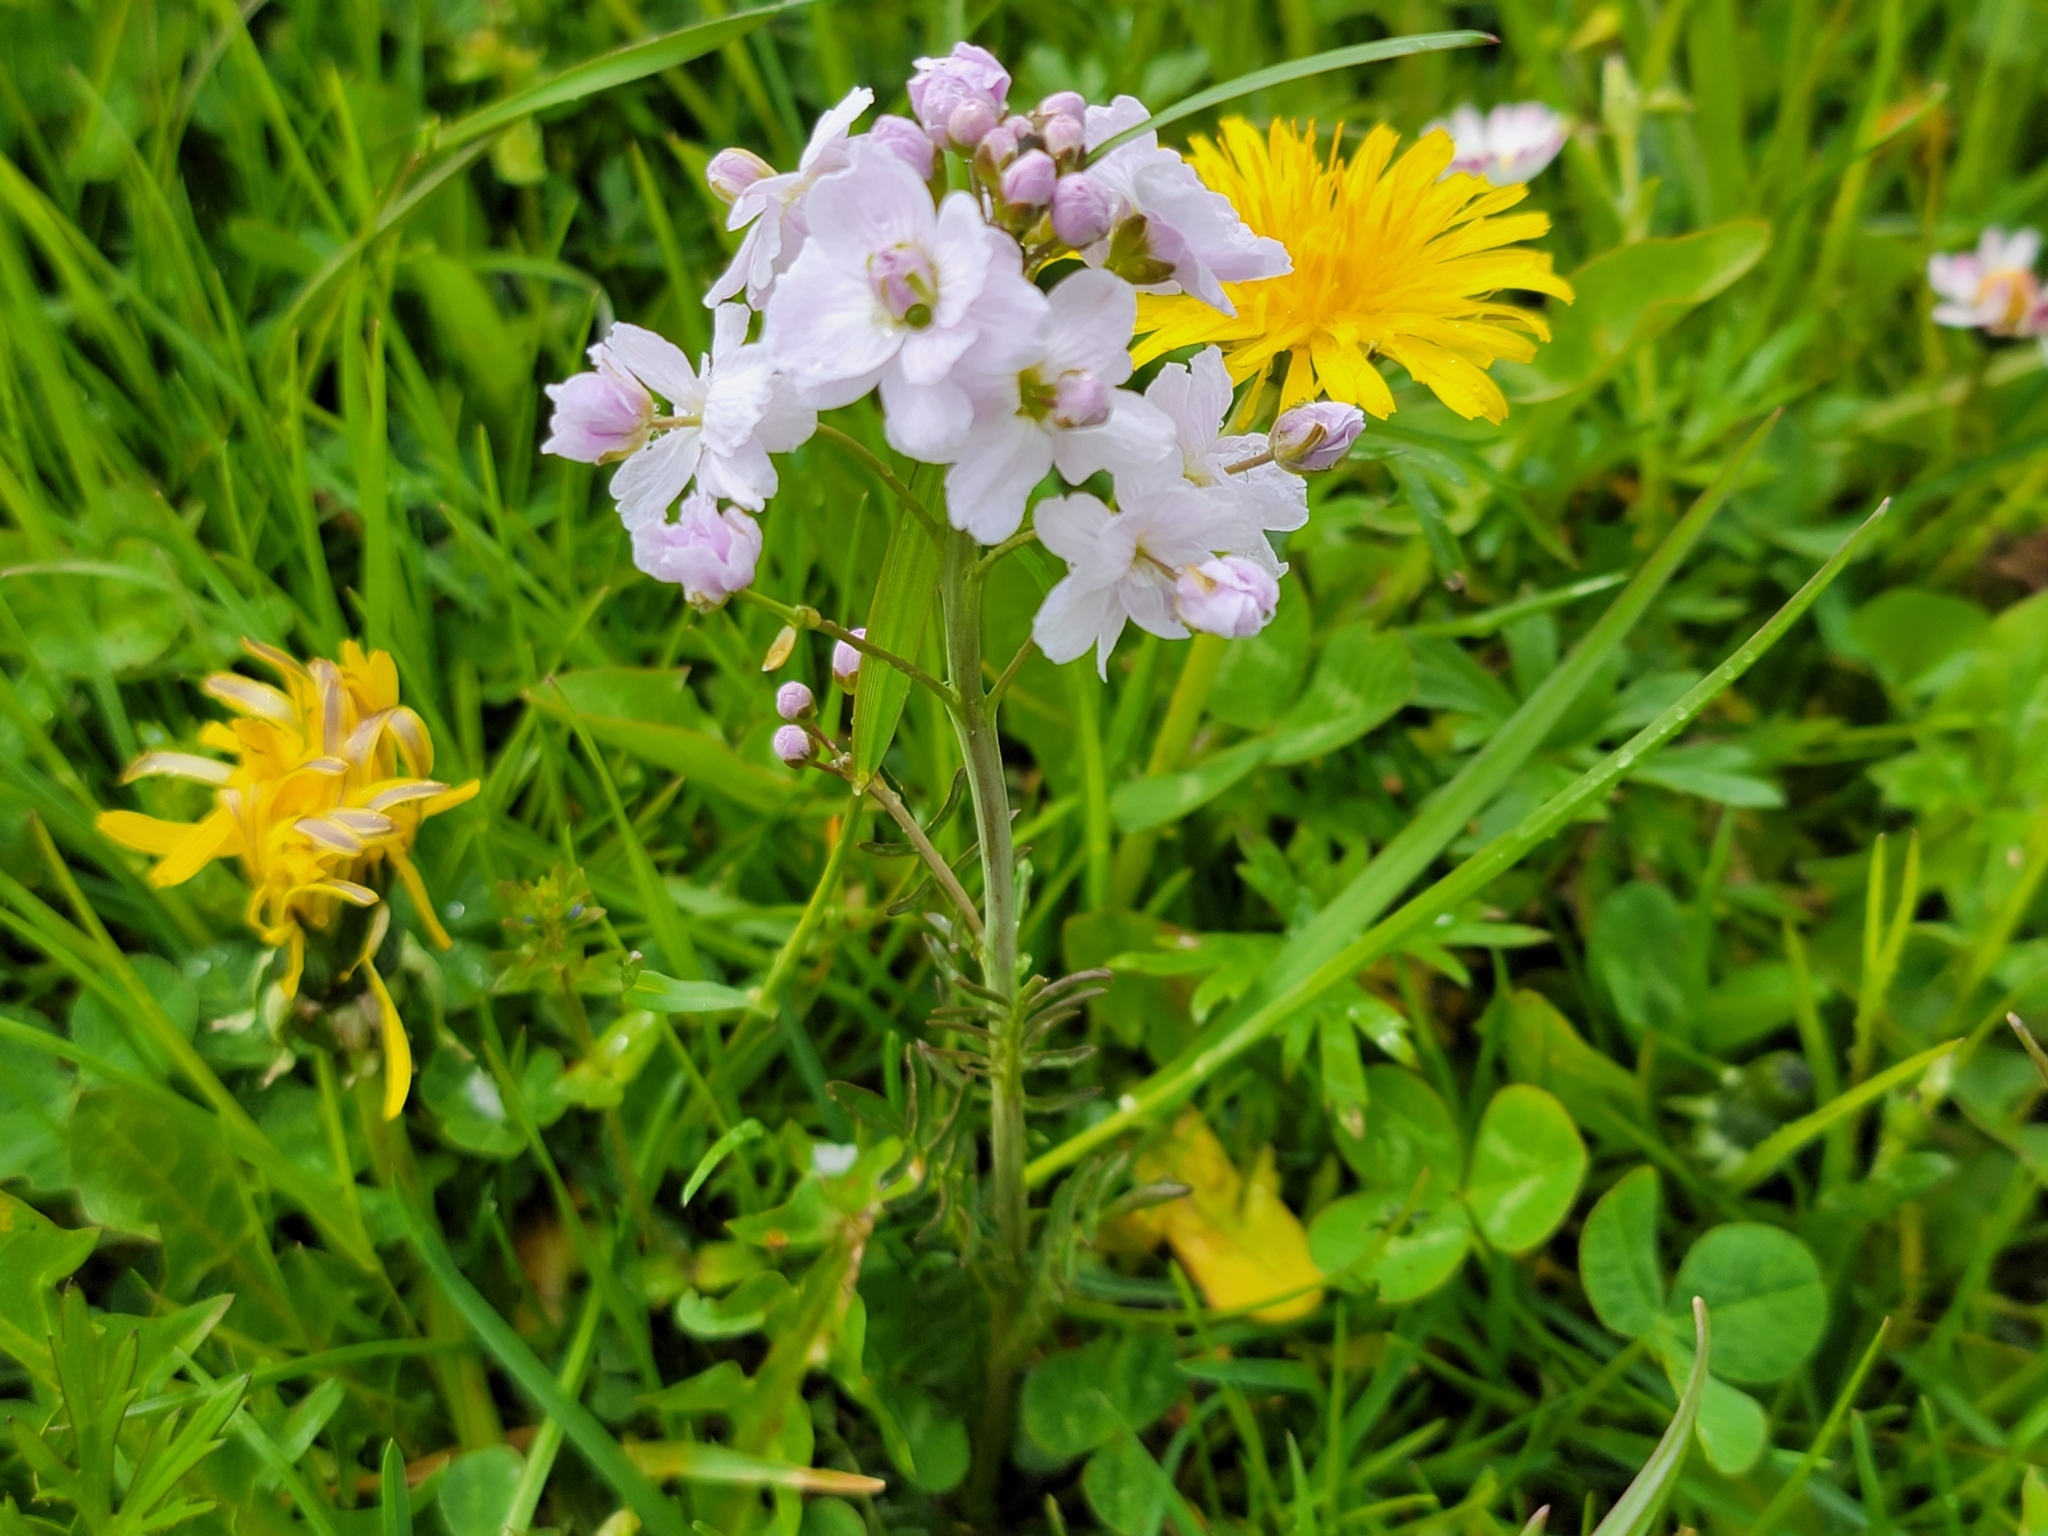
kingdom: Plantae
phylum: Tracheophyta
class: Magnoliopsida
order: Brassicales
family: Brassicaceae
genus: Cardamine
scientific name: Cardamine pratensis
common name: Cuckoo flower
